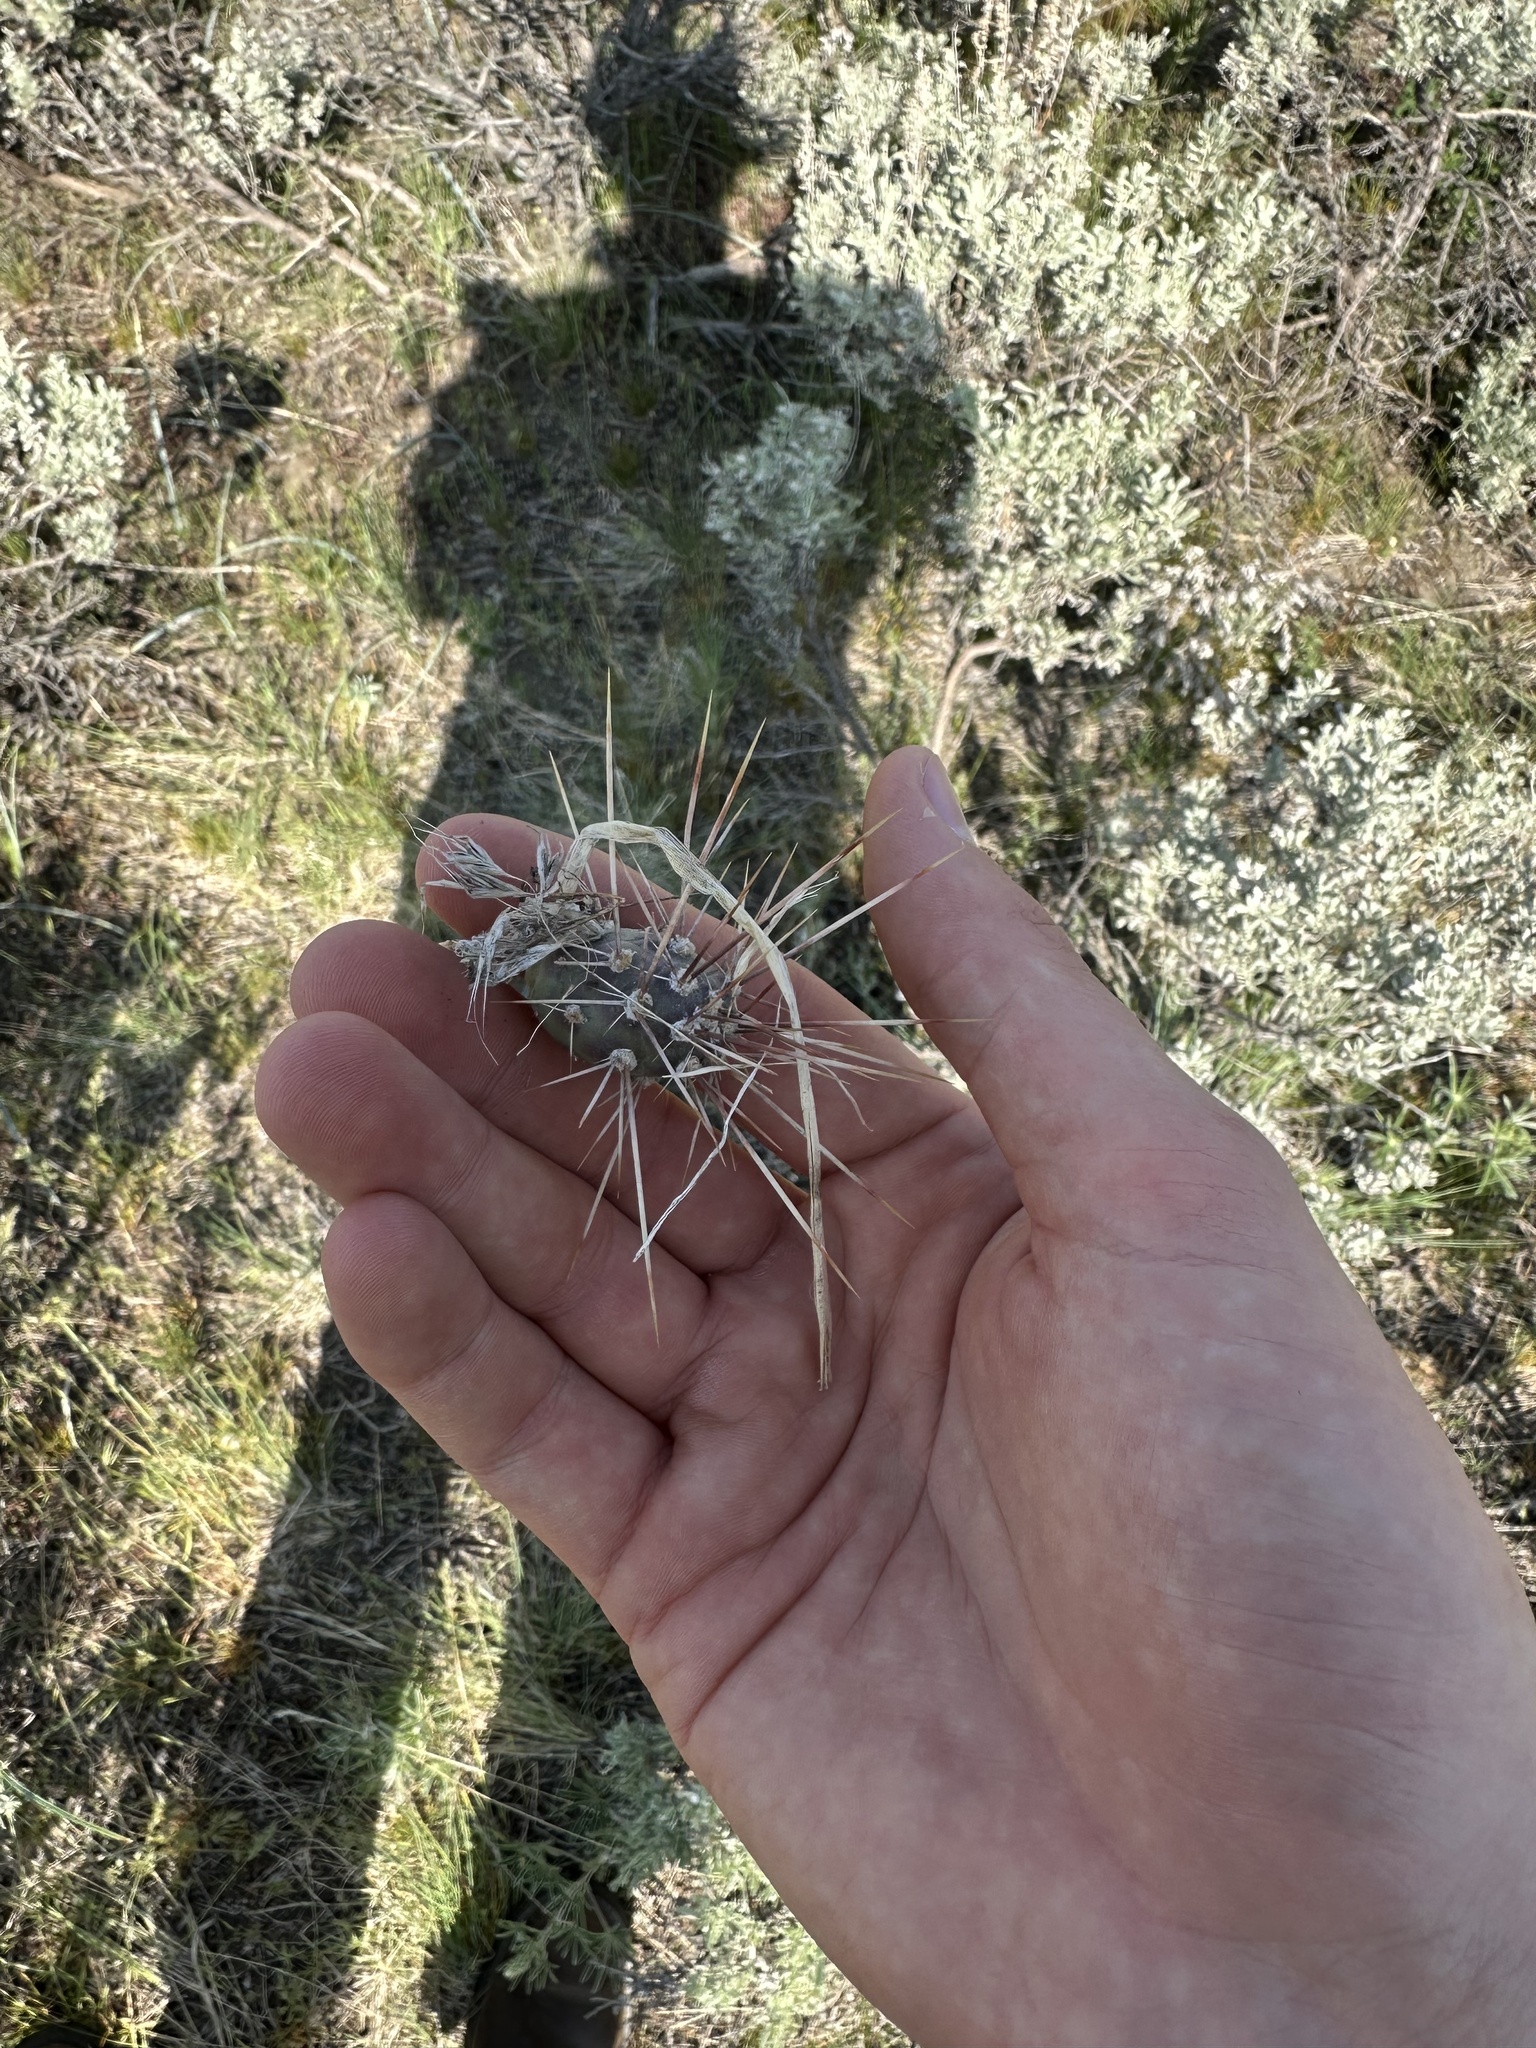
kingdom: Plantae
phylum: Tracheophyta
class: Magnoliopsida
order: Caryophyllales
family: Cactaceae
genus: Opuntia
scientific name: Opuntia fragilis
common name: Brittle cactus
